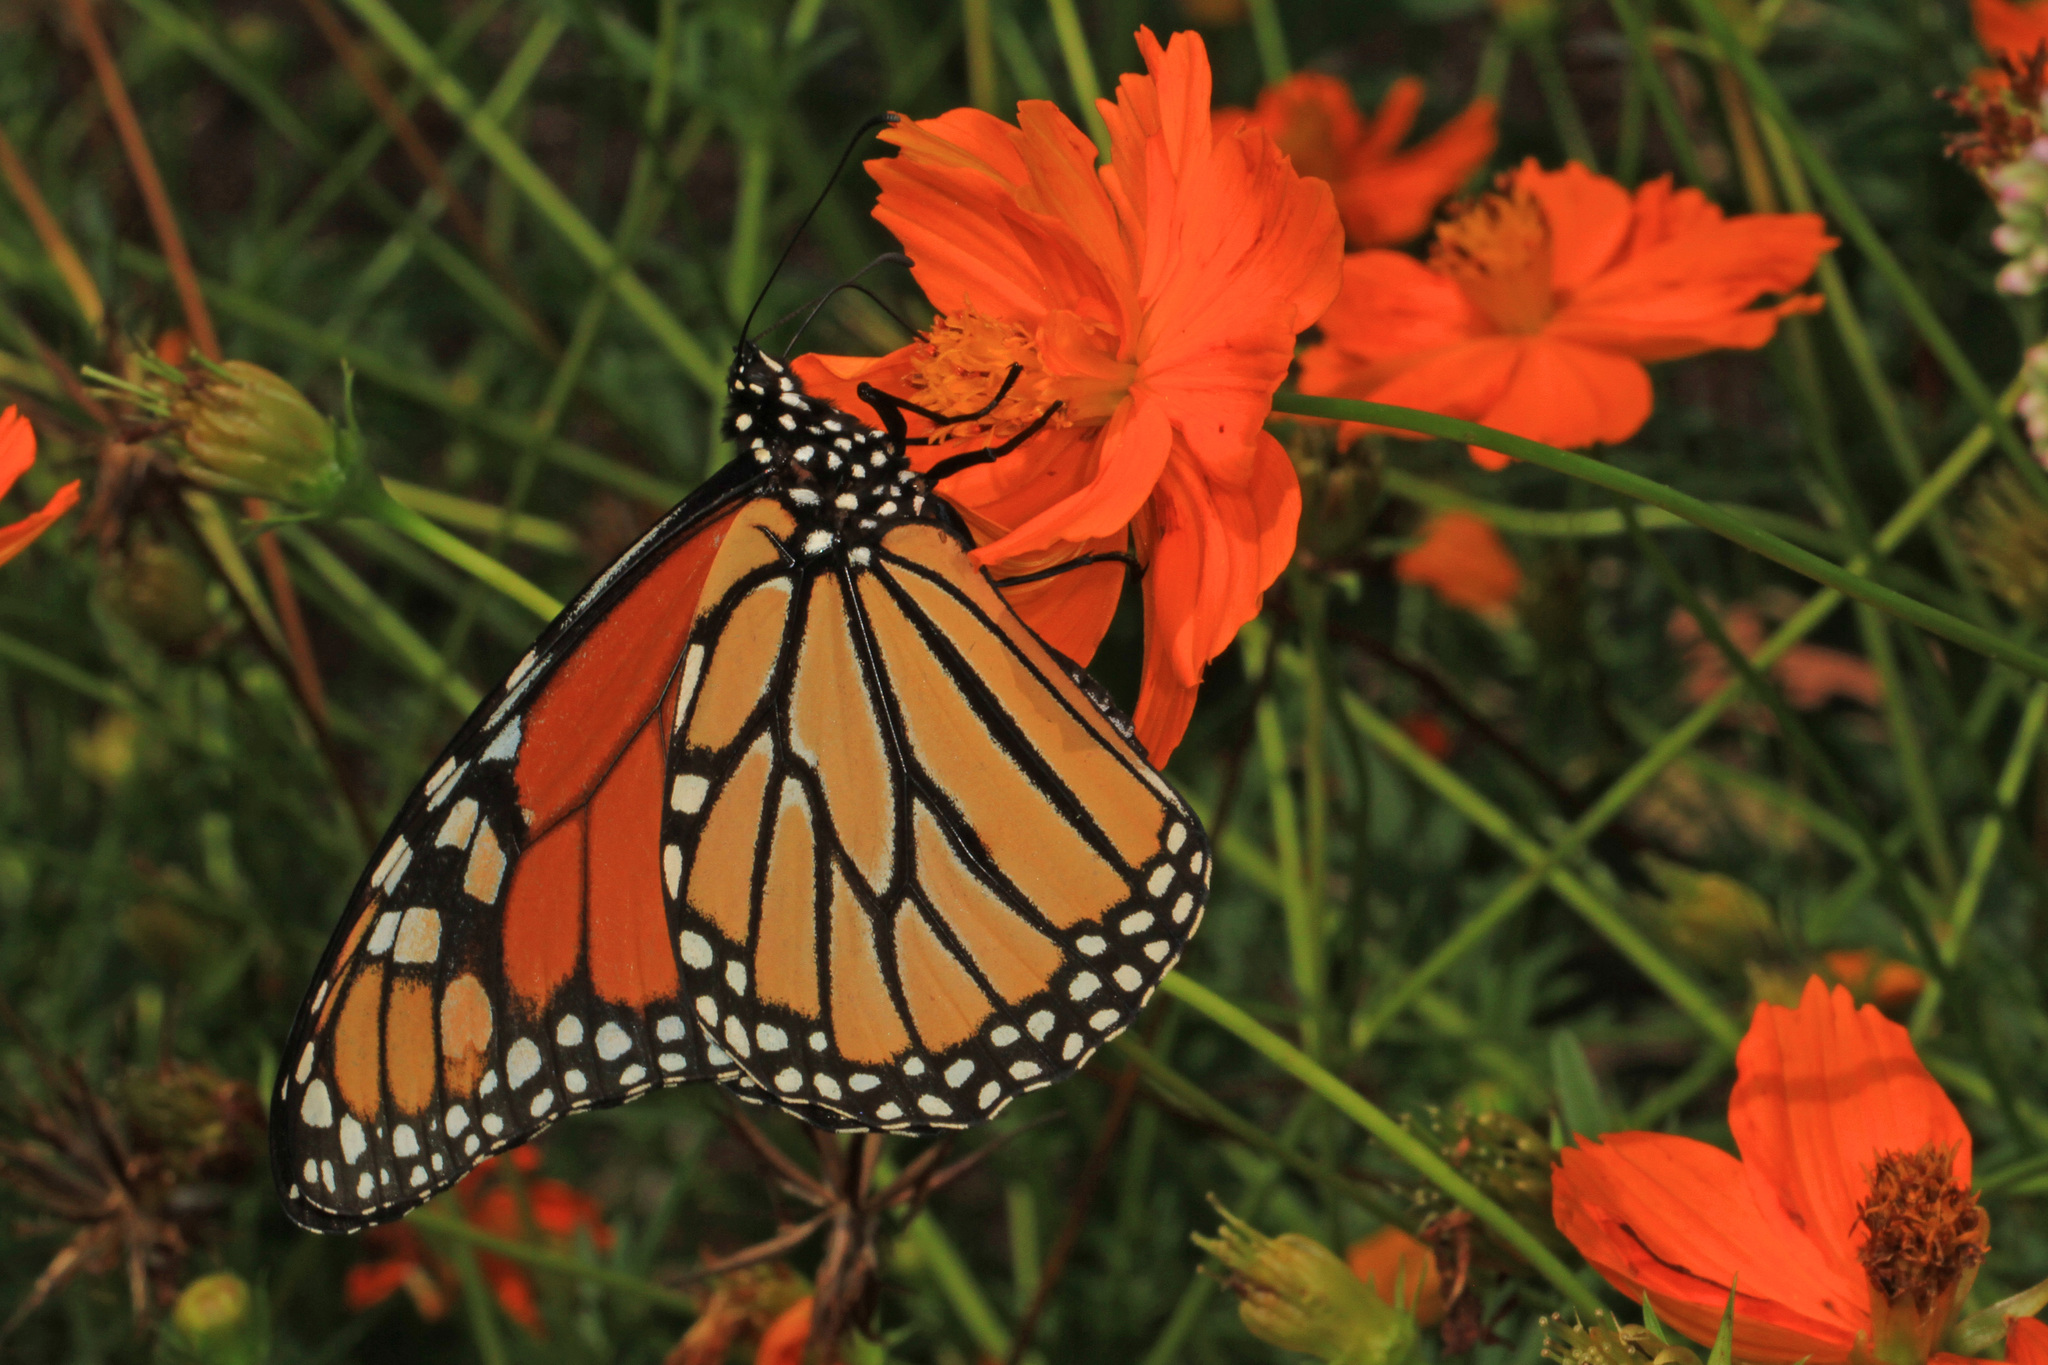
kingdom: Animalia
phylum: Arthropoda
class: Insecta
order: Lepidoptera
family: Nymphalidae
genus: Danaus
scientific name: Danaus plexippus
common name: Monarch
